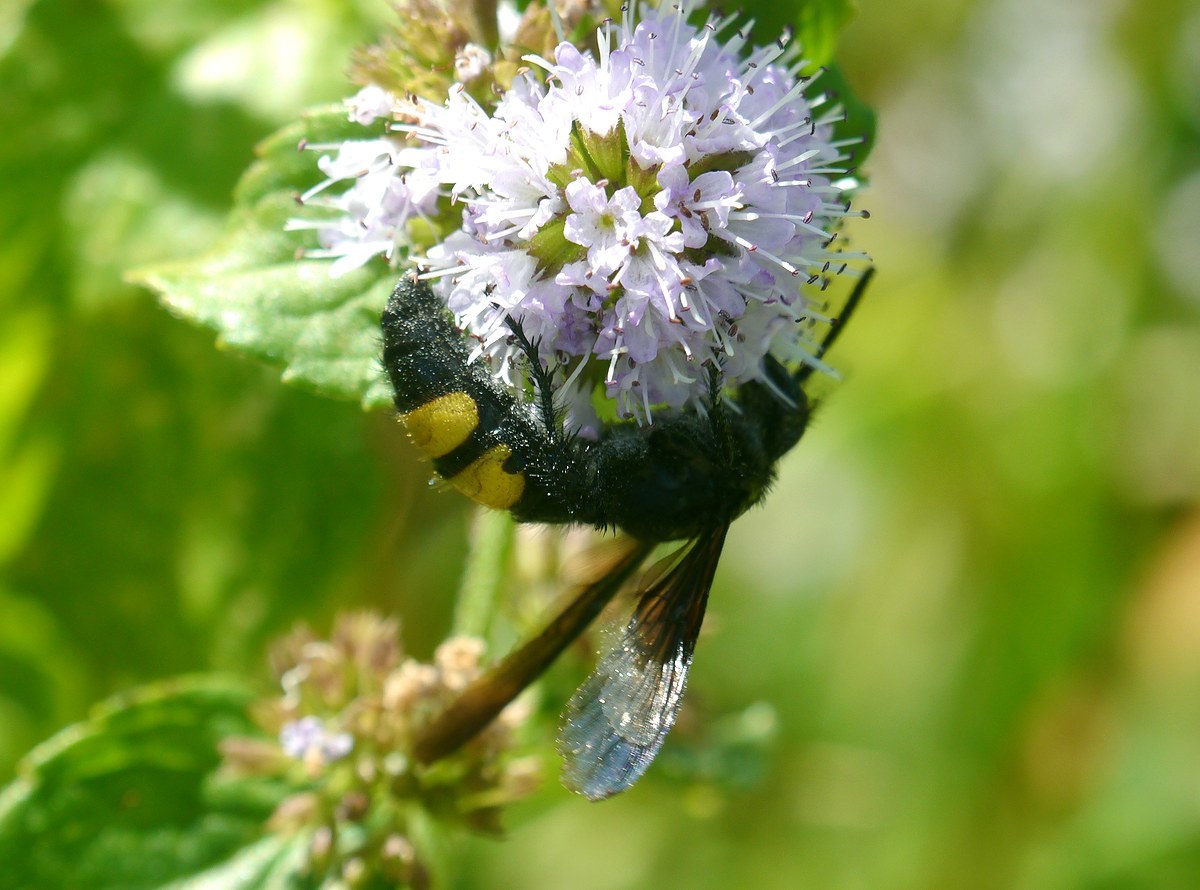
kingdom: Animalia
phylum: Arthropoda
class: Insecta
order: Hymenoptera
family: Scoliidae
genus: Scolia
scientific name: Scolia hirta
